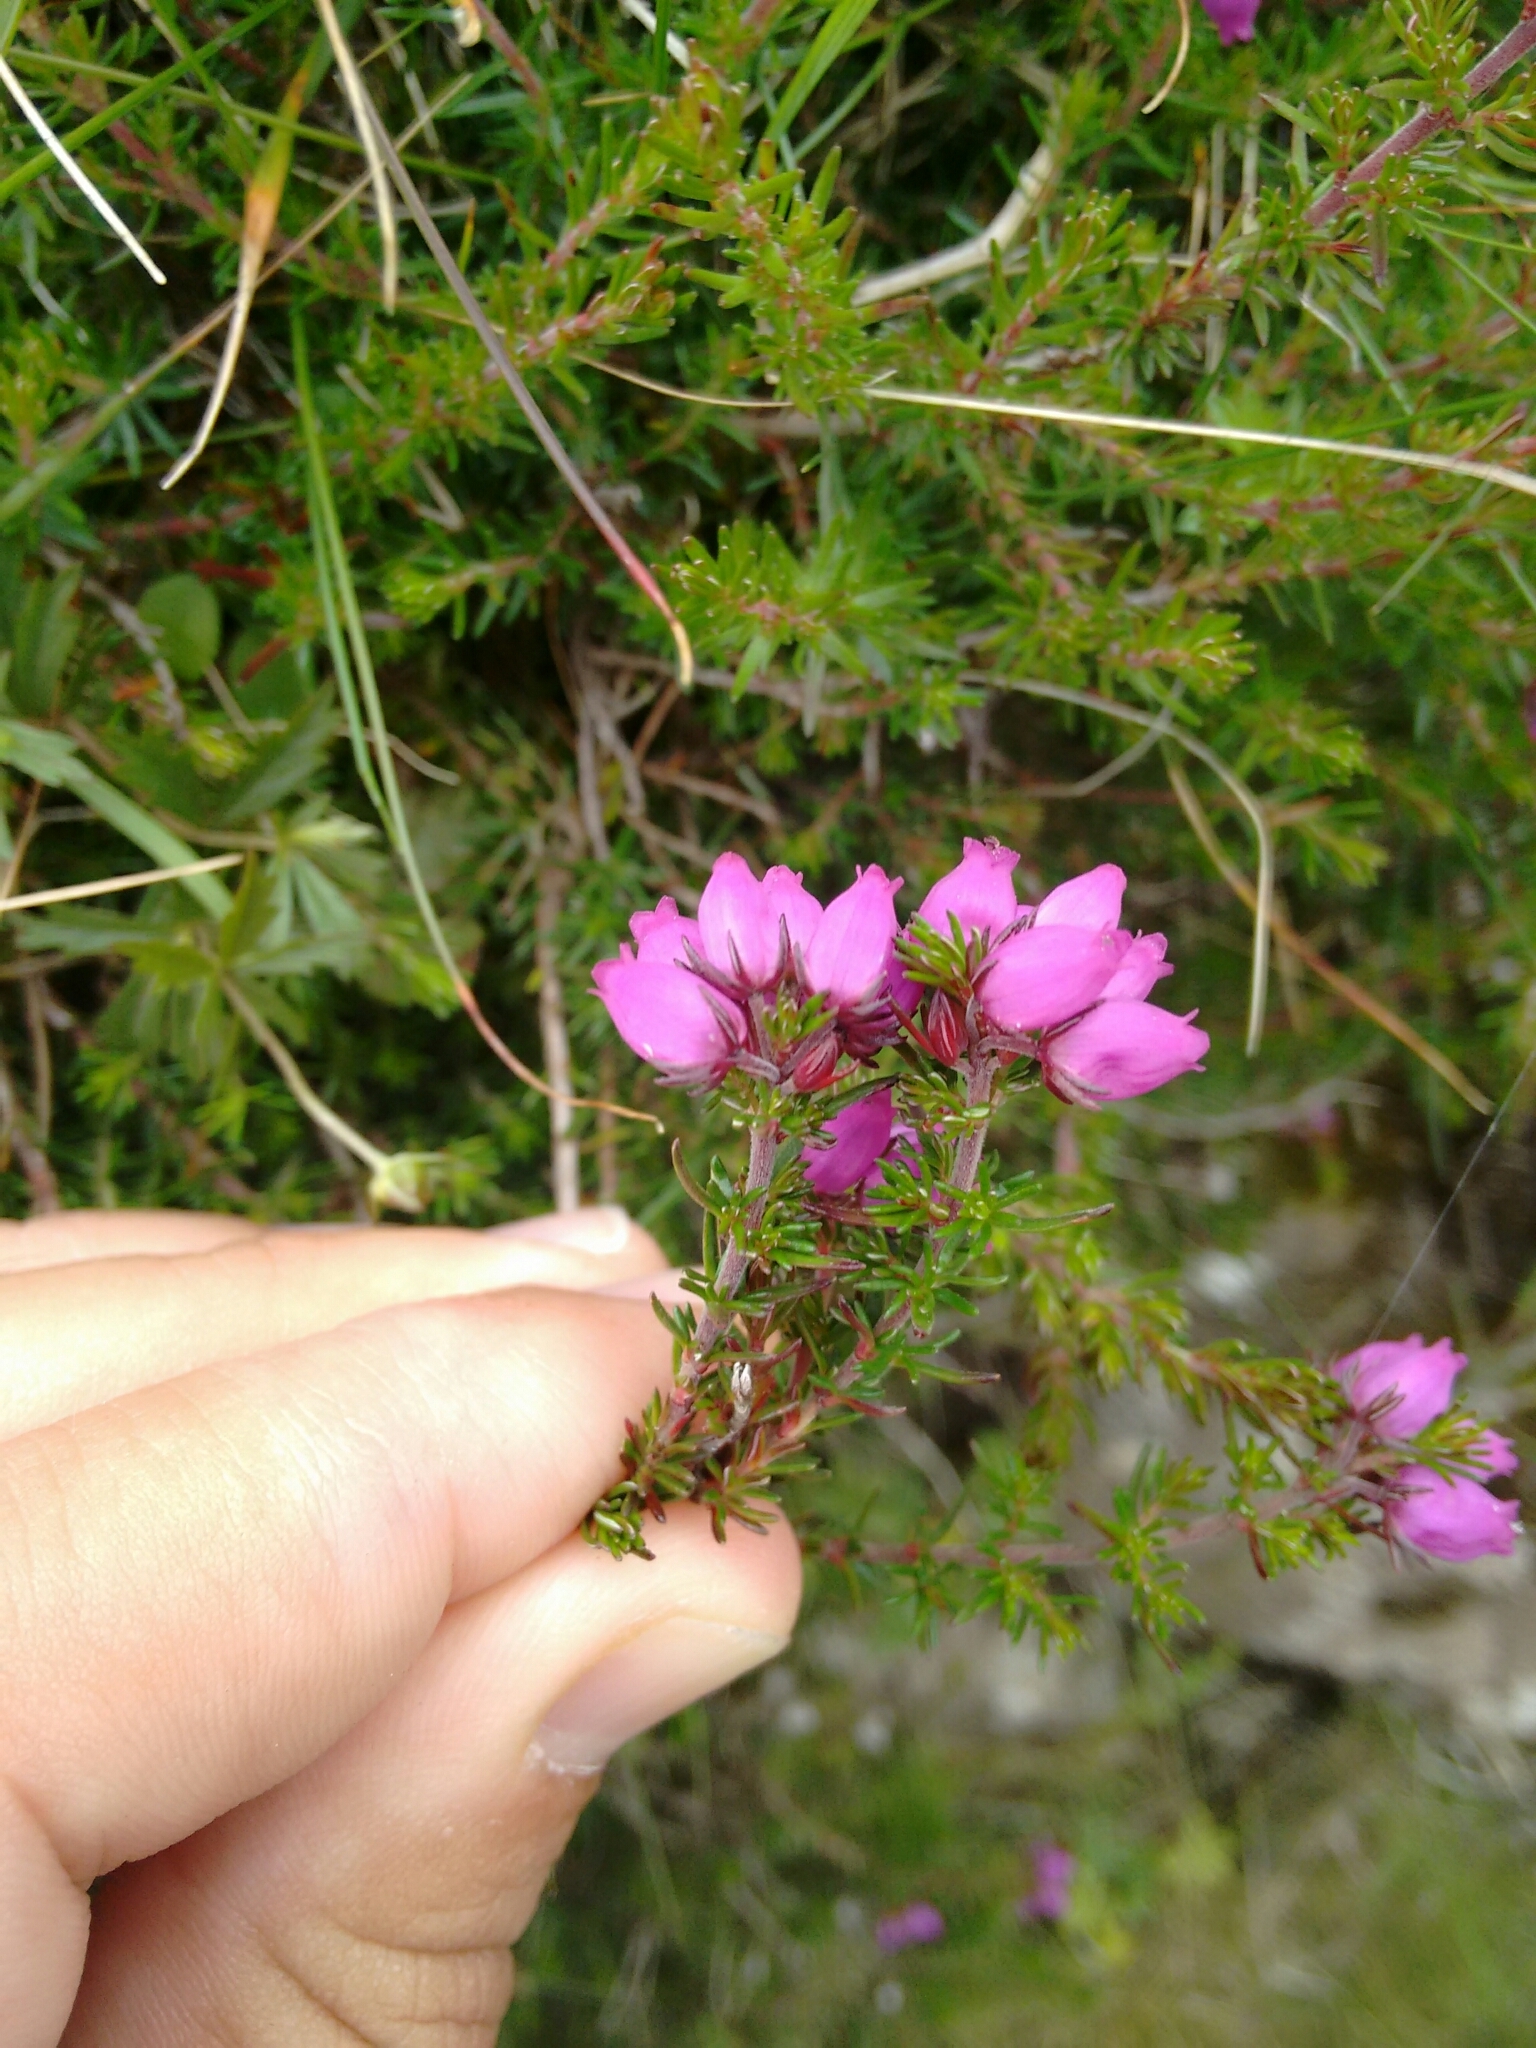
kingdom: Plantae
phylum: Tracheophyta
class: Magnoliopsida
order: Ericales
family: Ericaceae
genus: Erica
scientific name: Erica cinerea
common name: Bell heather
